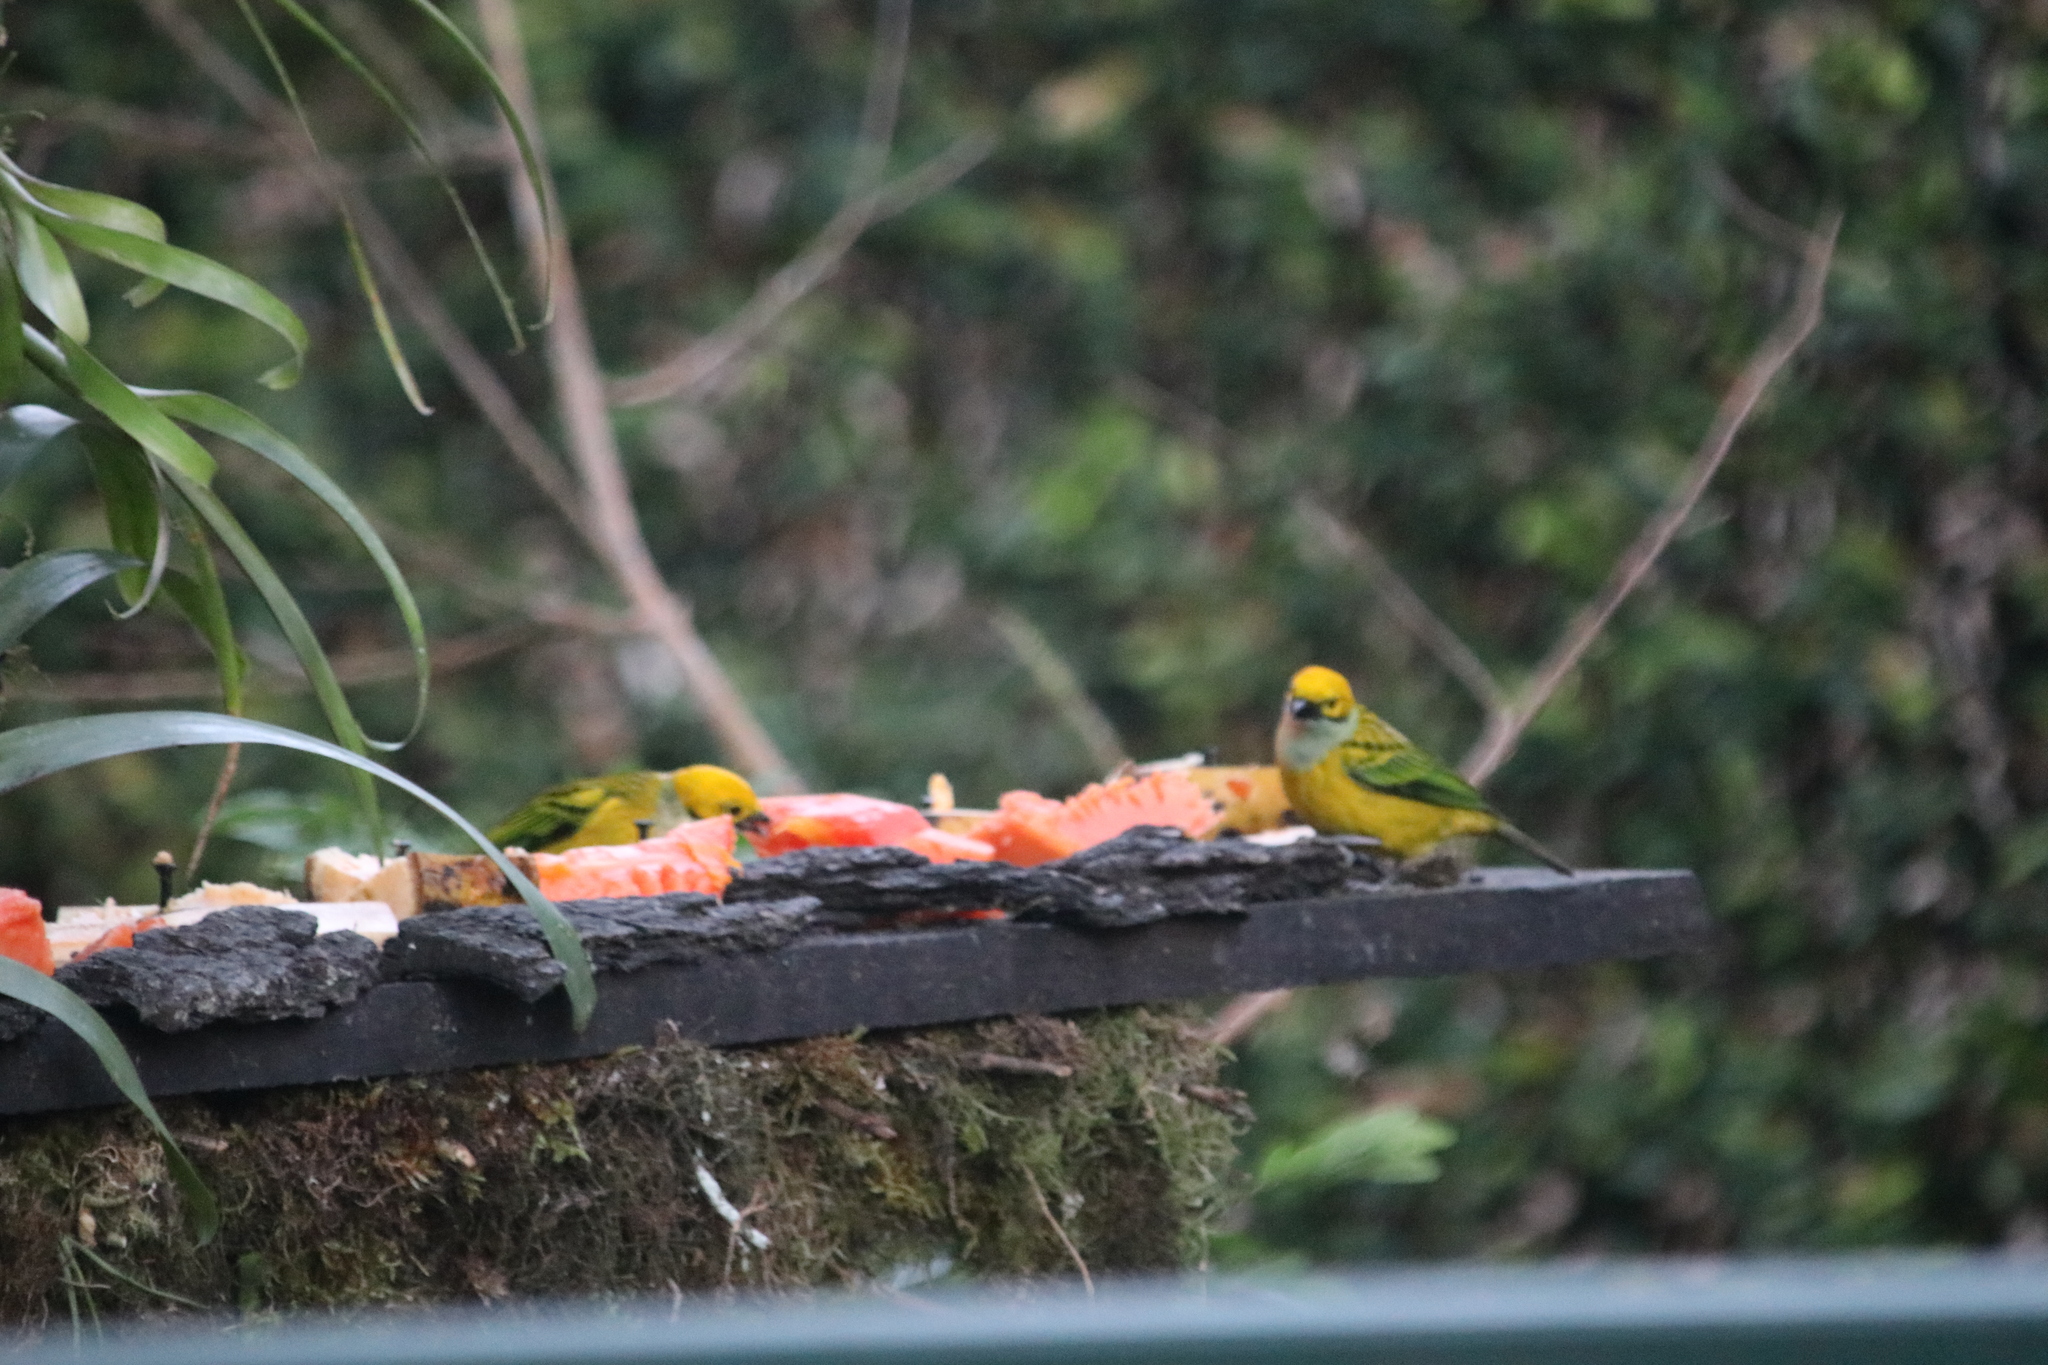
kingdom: Animalia
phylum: Chordata
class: Aves
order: Passeriformes
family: Thraupidae
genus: Tangara
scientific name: Tangara icterocephala
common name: Silver-throated tanager
